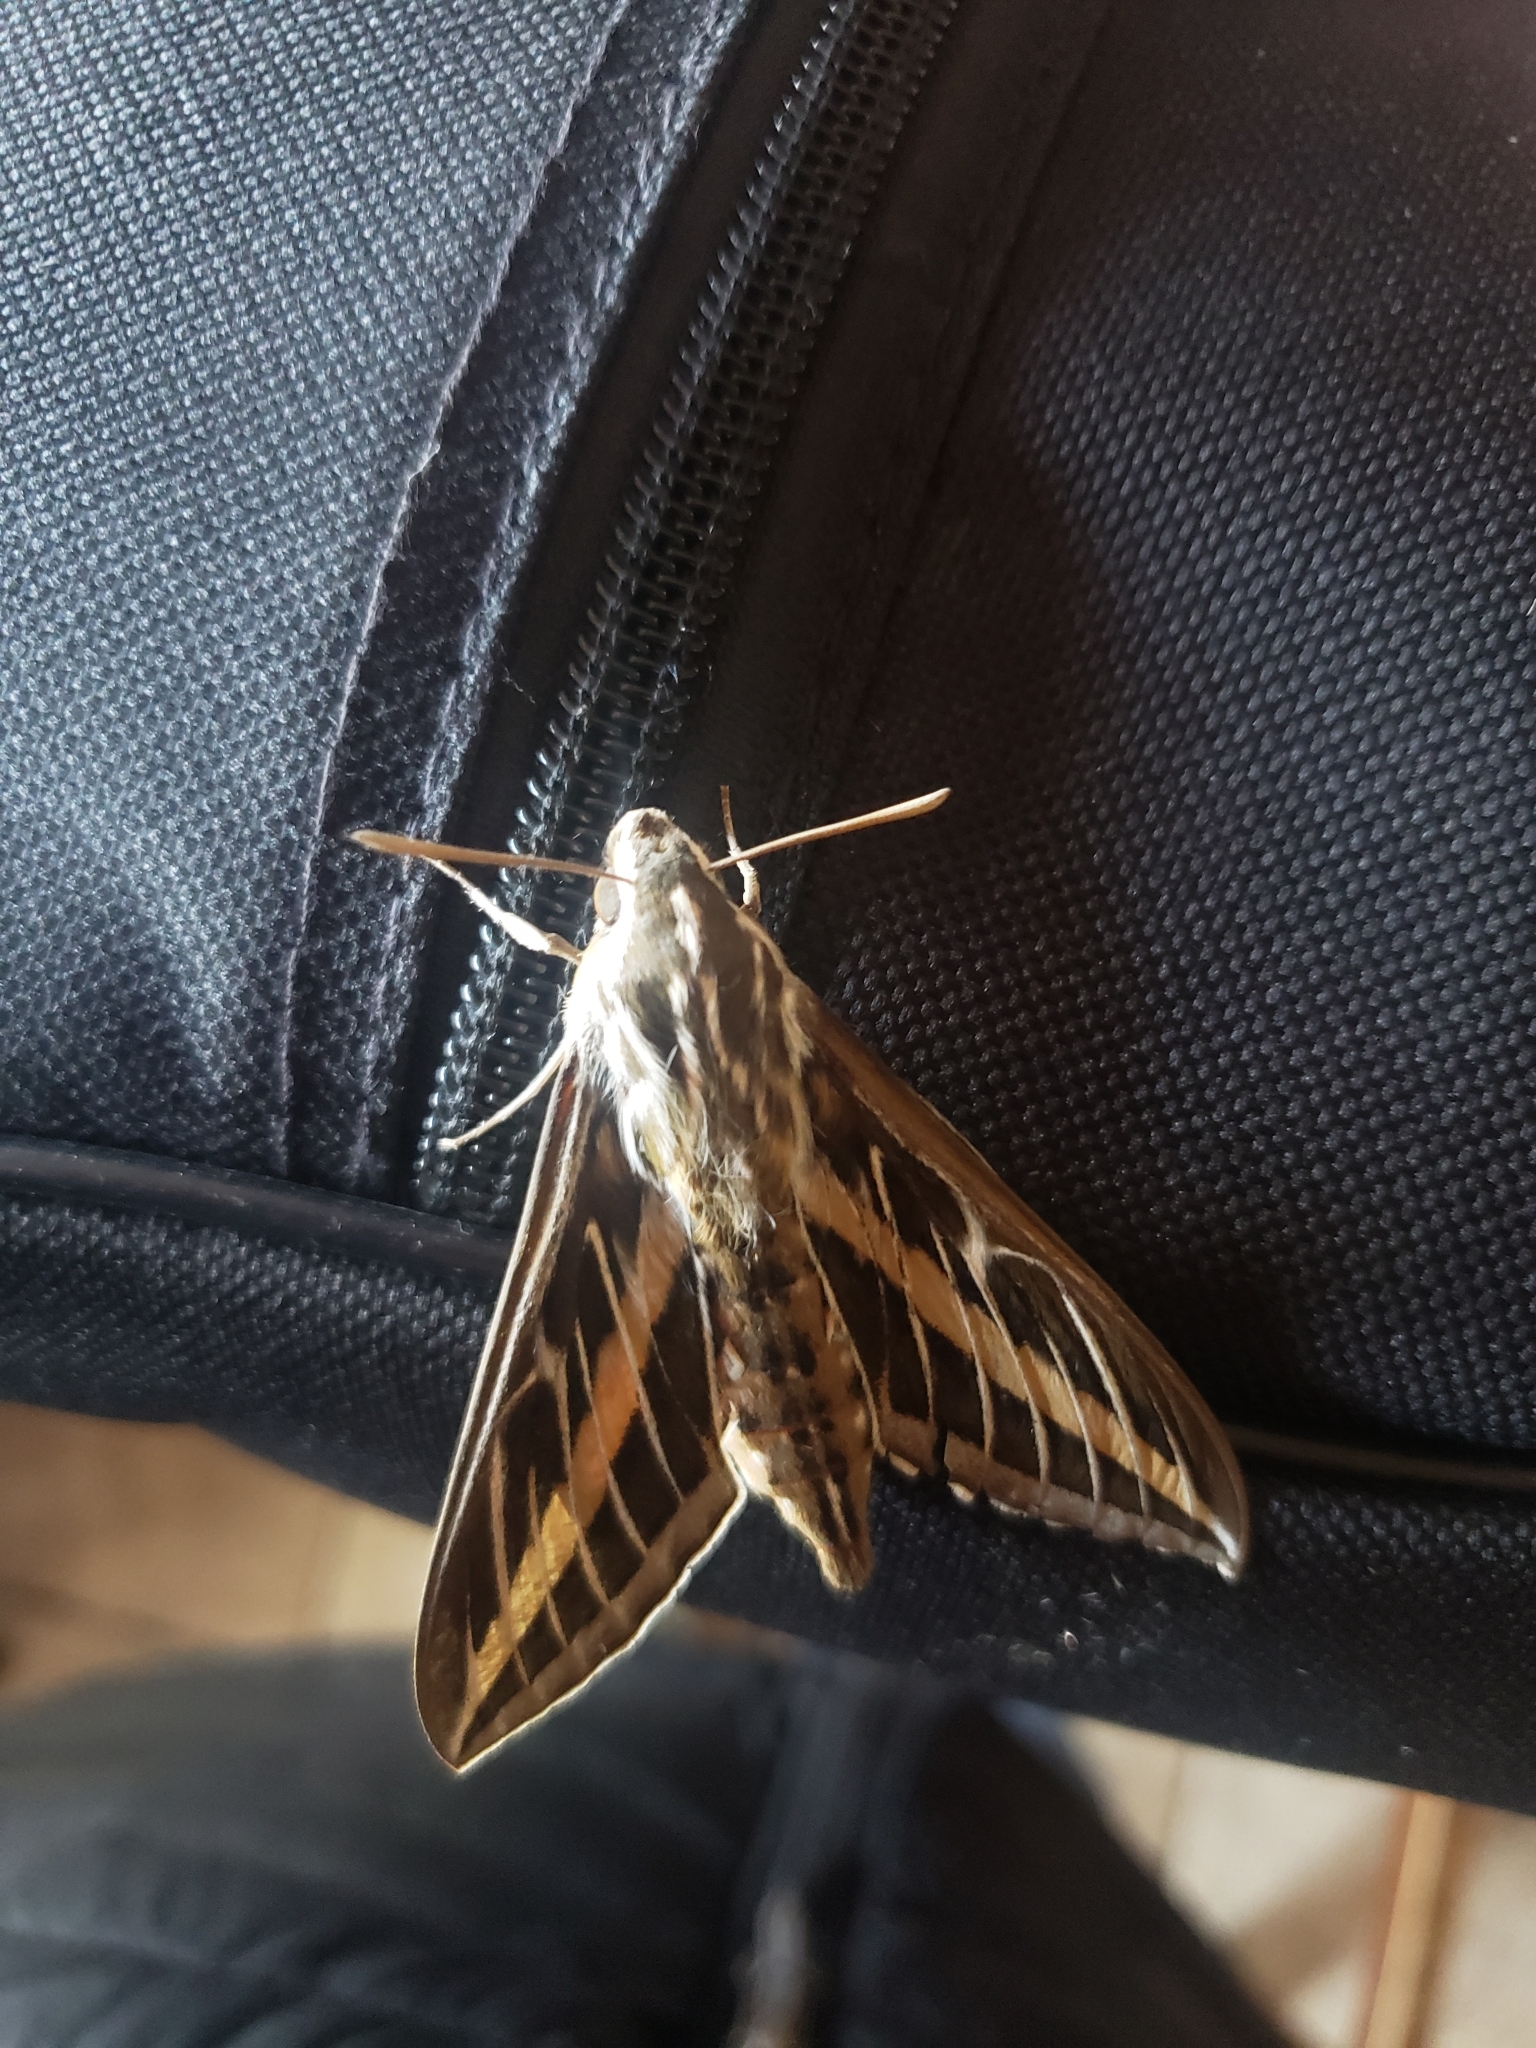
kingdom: Animalia
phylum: Arthropoda
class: Insecta
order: Lepidoptera
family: Sphingidae
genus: Hyles
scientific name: Hyles lineata
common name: White-lined sphinx
